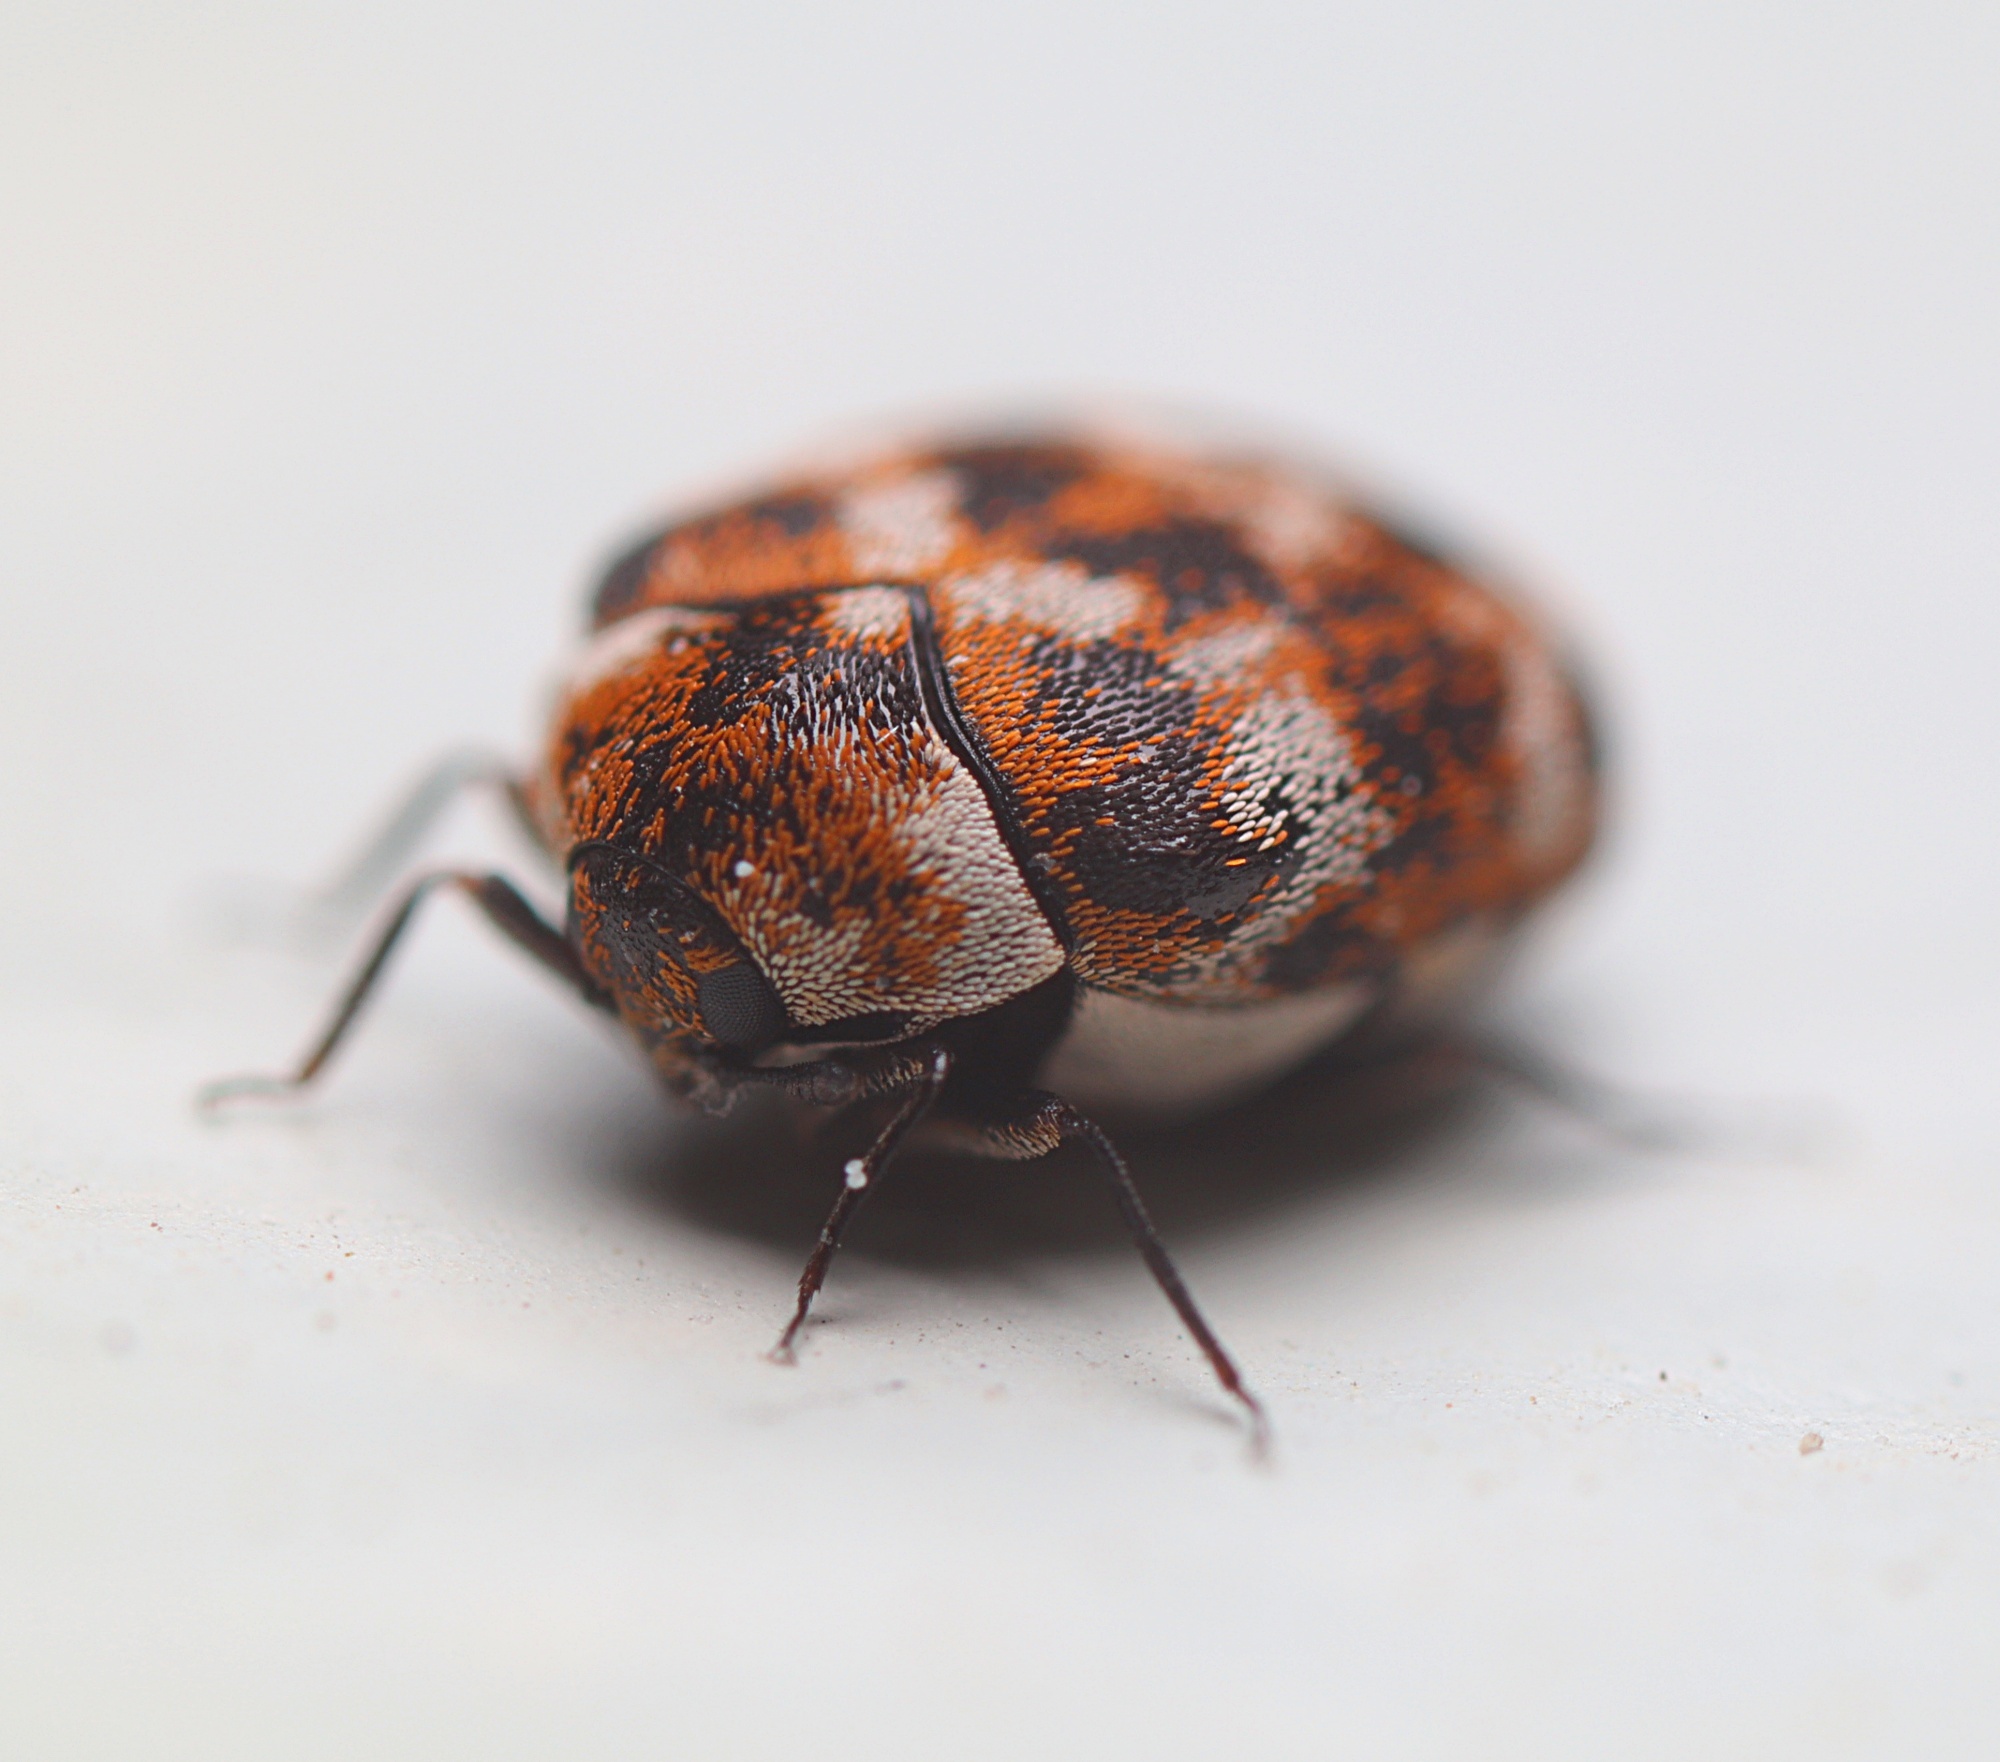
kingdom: Animalia
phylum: Arthropoda
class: Insecta
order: Coleoptera
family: Dermestidae
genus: Anthrenus
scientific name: Anthrenus verbasci
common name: Varied carpet beetle
